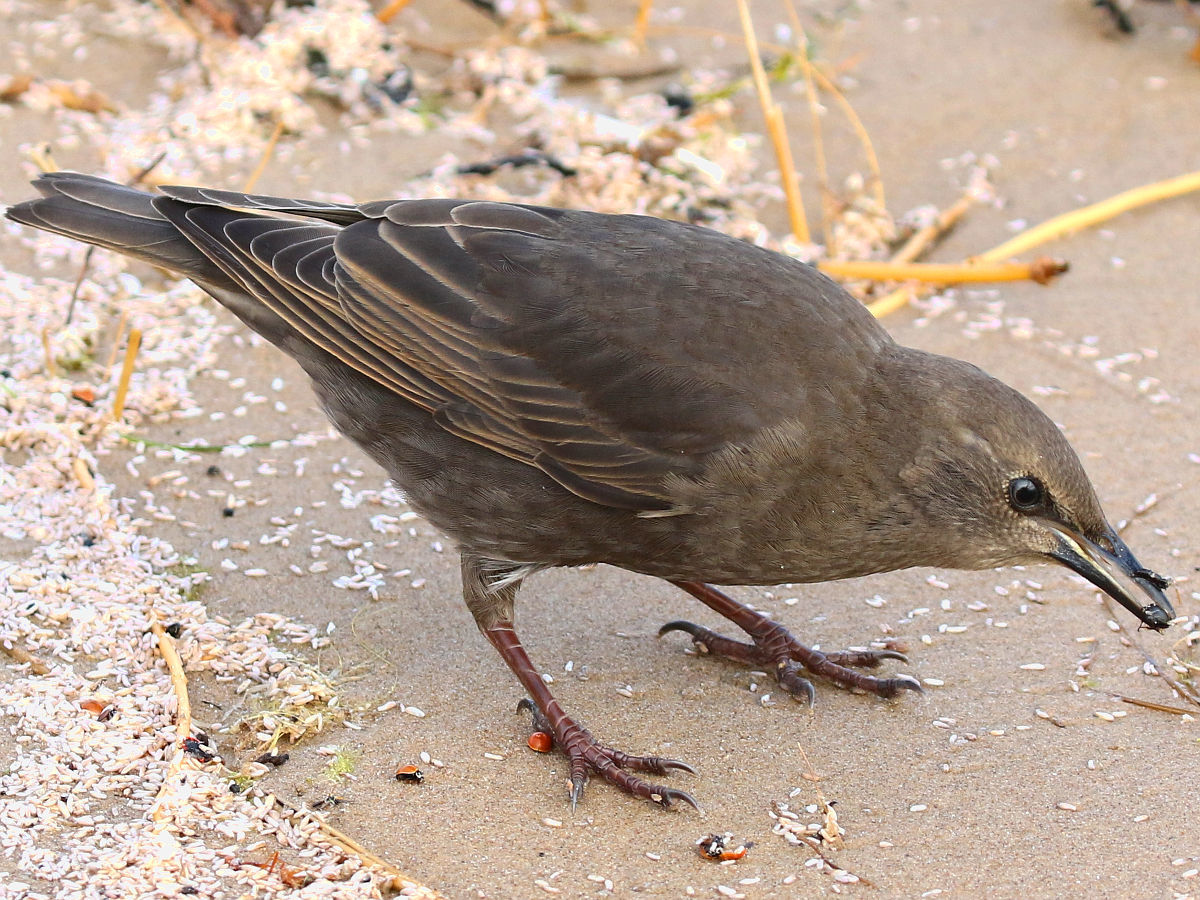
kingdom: Animalia
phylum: Chordata
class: Aves
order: Passeriformes
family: Sturnidae
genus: Sturnus
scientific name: Sturnus vulgaris
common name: Common starling
